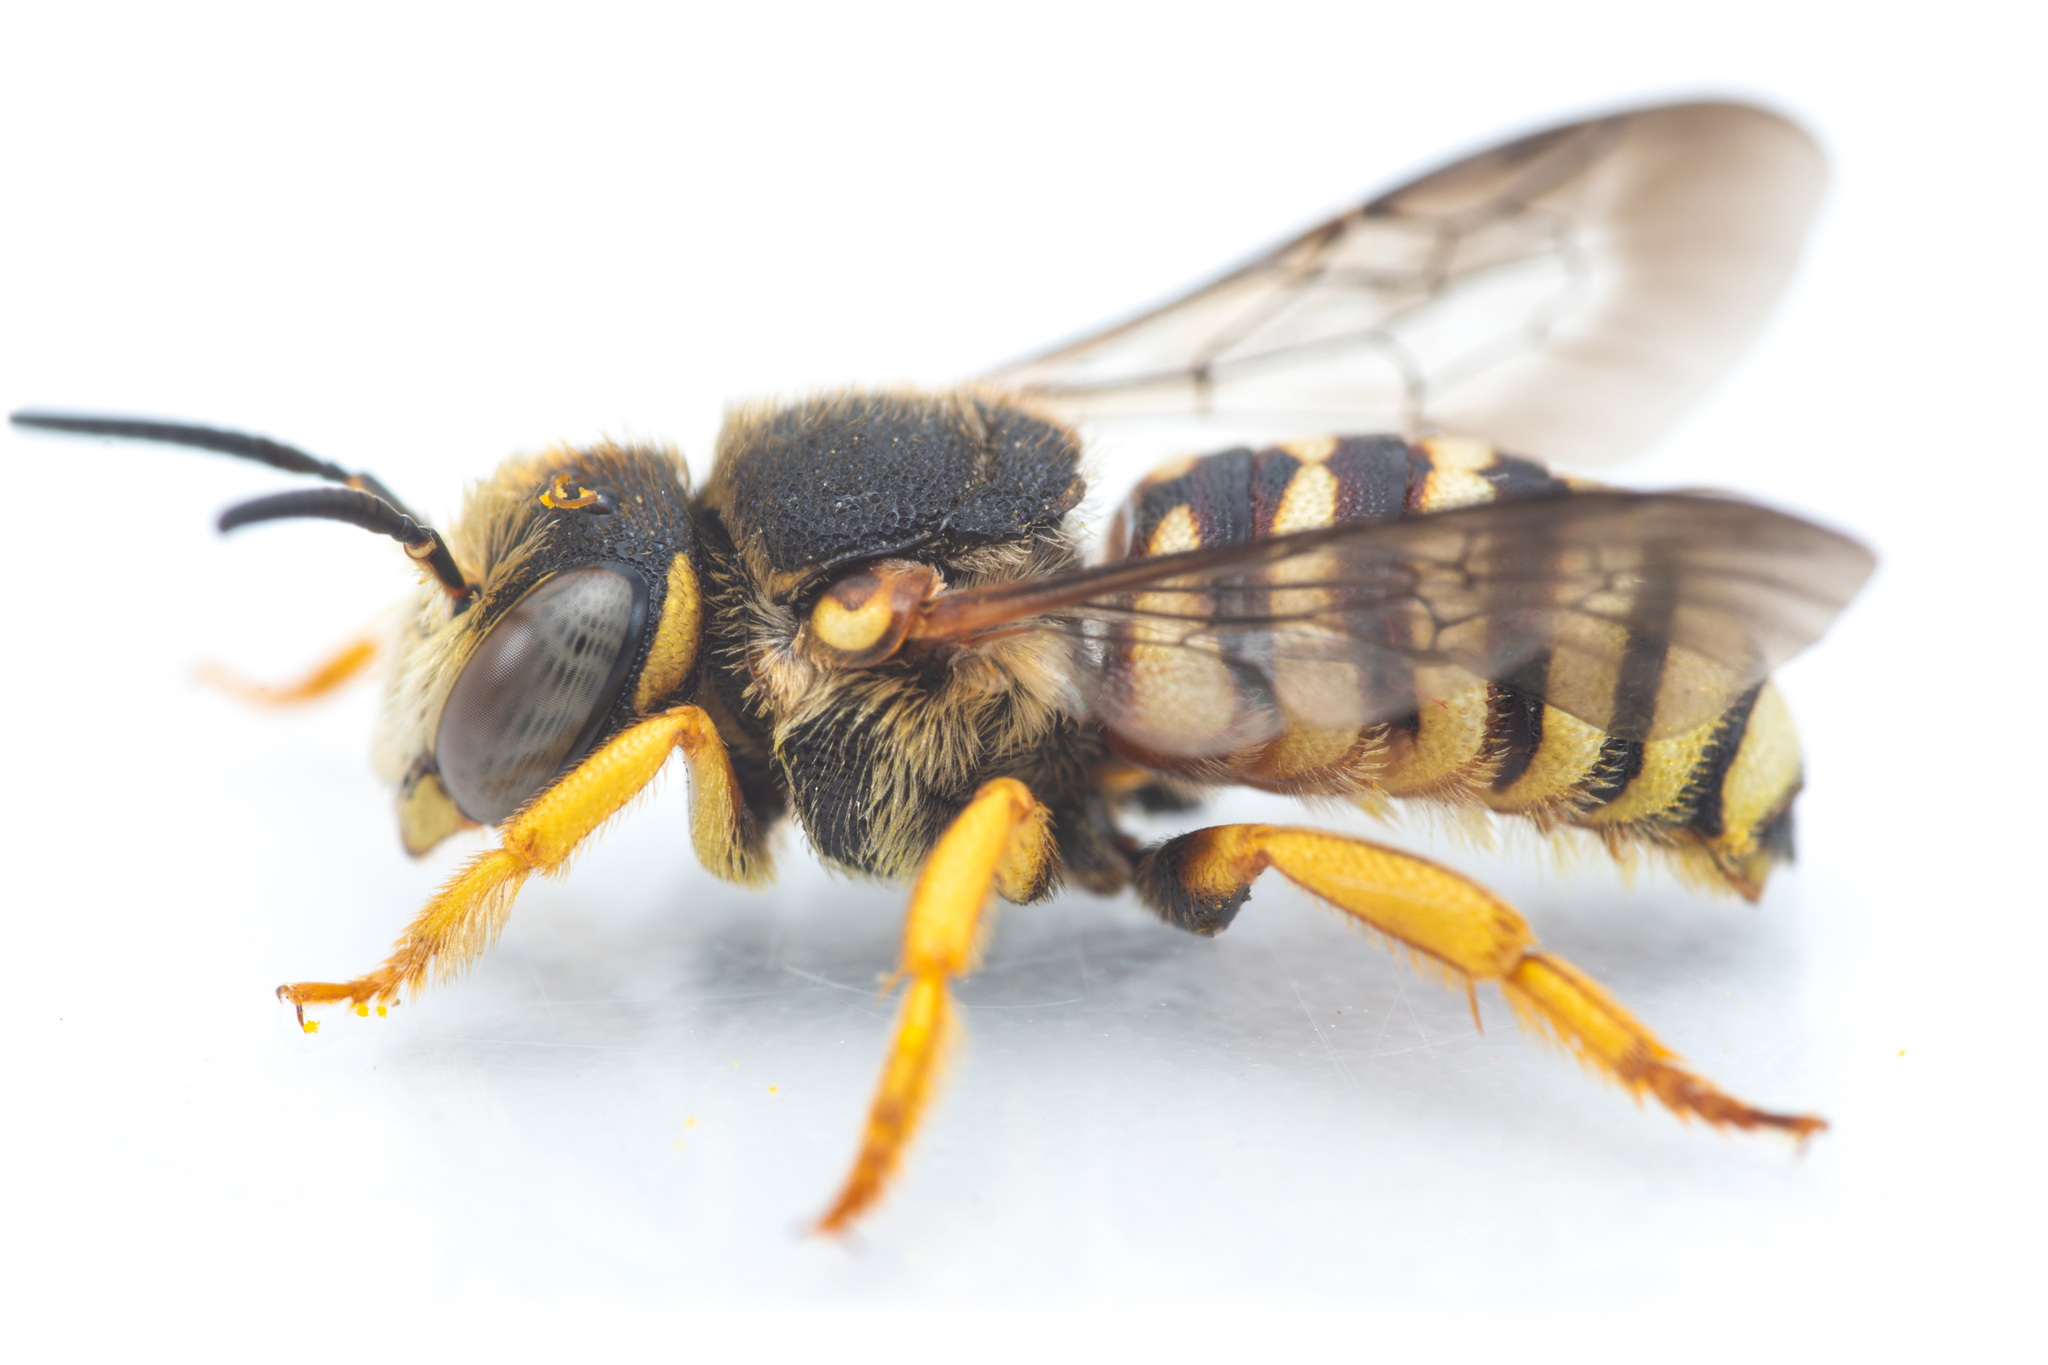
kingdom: Animalia
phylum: Arthropoda
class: Insecta
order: Hymenoptera
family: Megachilidae
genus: Icteranthidium
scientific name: Icteranthidium grohmanni
